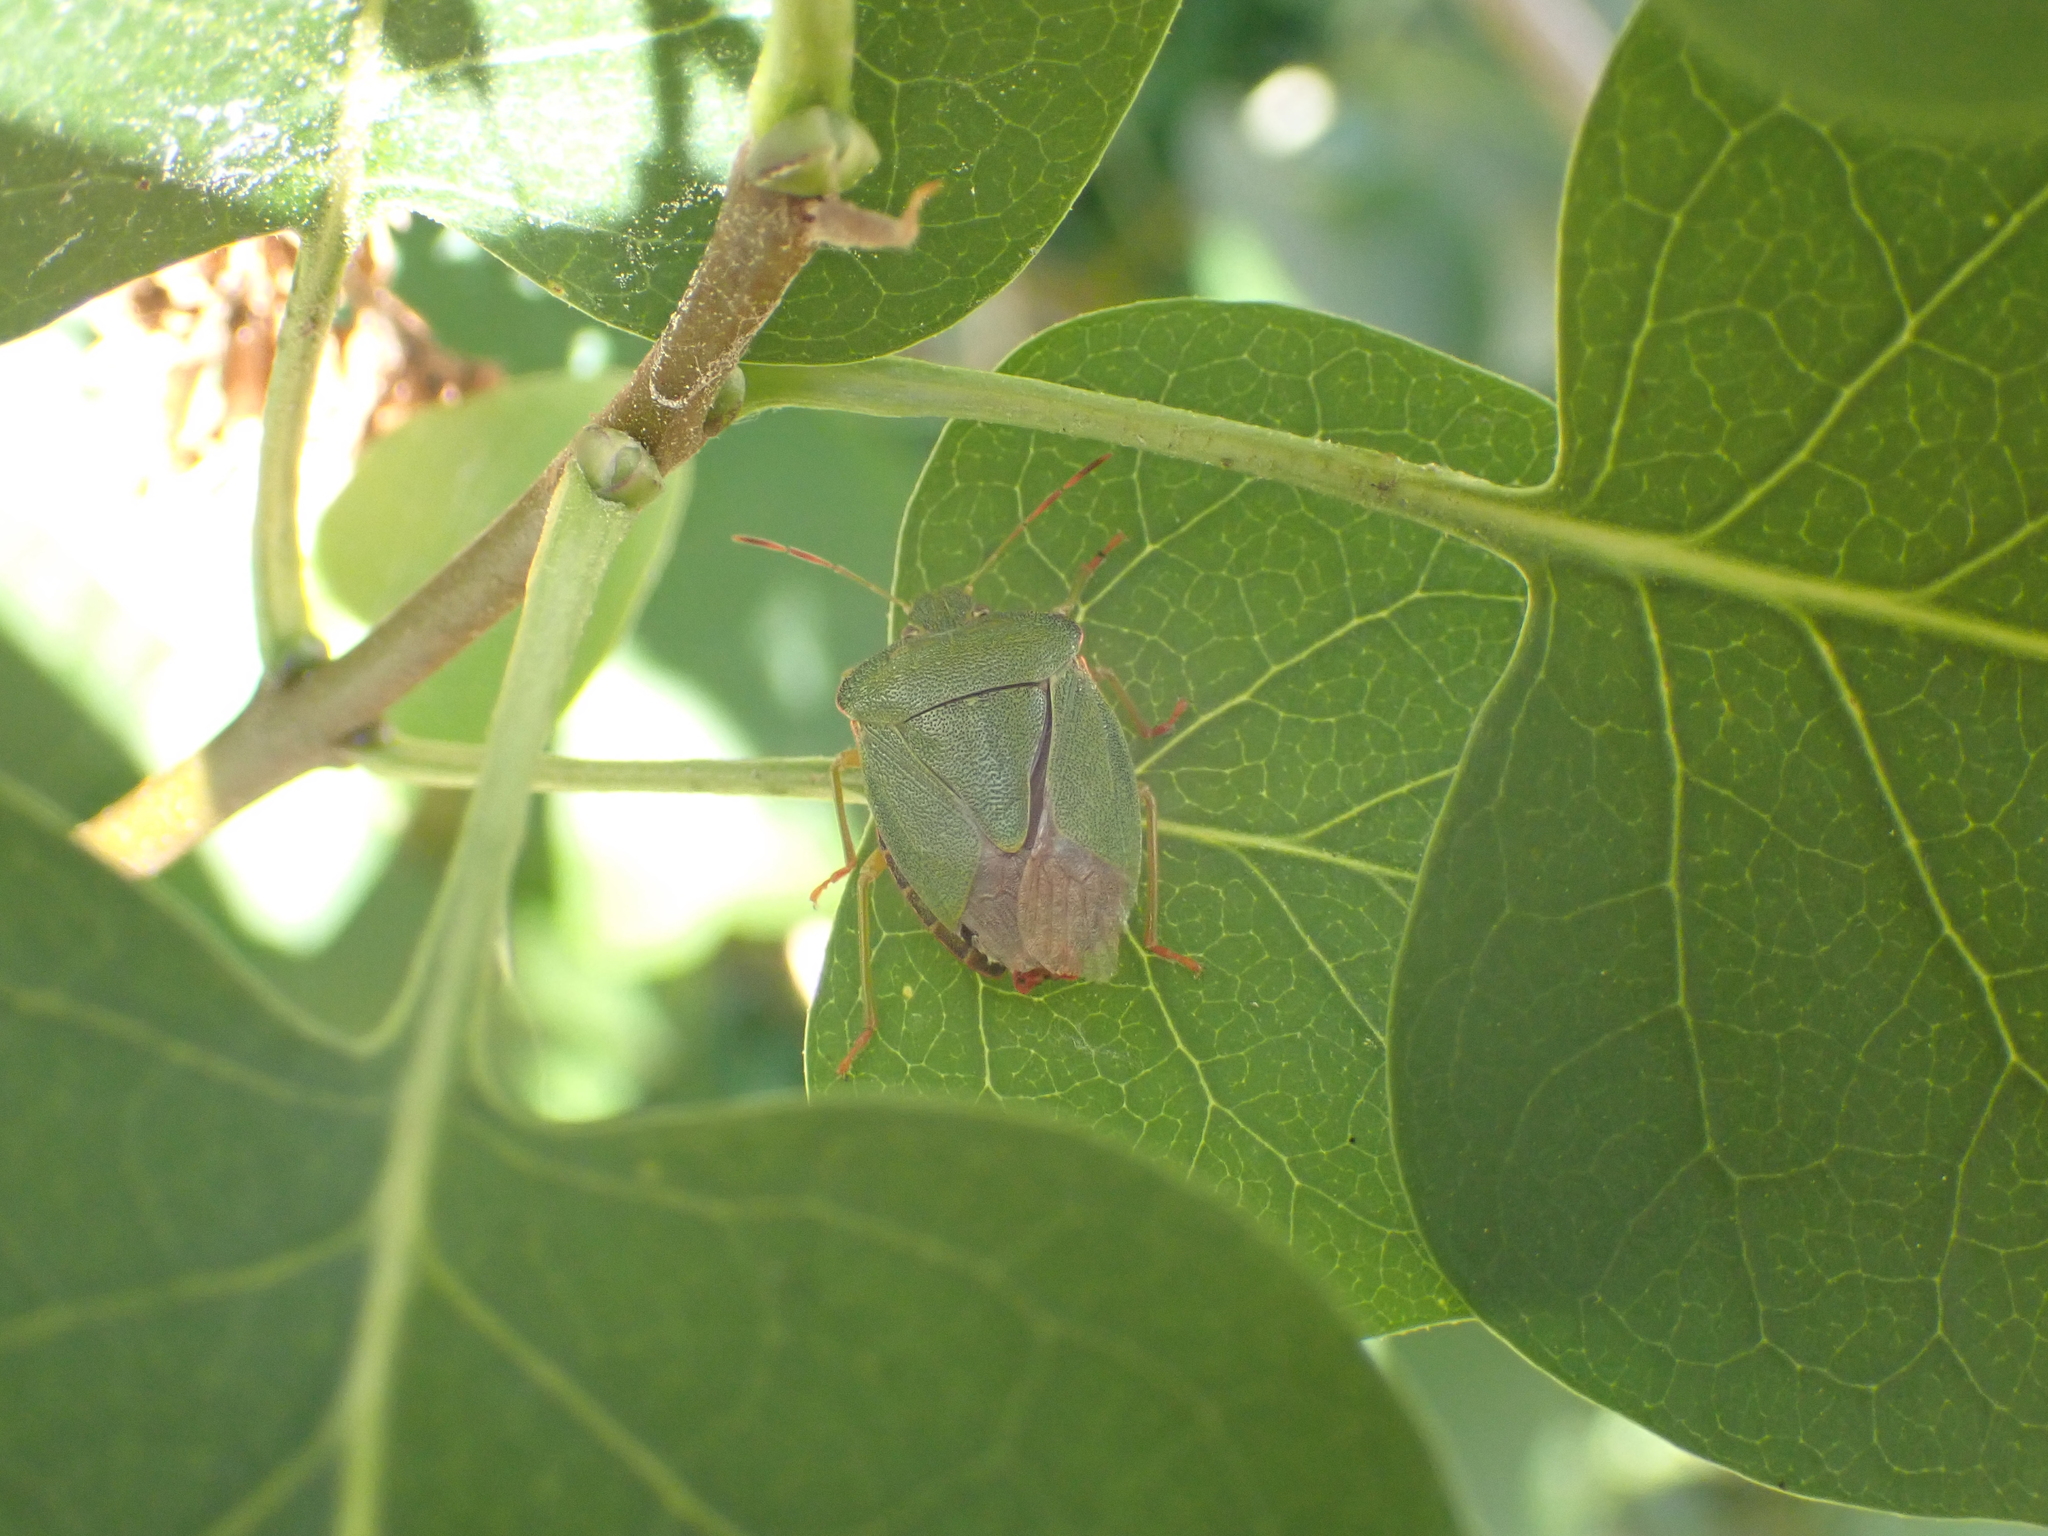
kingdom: Animalia
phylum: Arthropoda
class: Insecta
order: Hemiptera
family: Pentatomidae
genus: Palomena
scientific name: Palomena prasina
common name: Green shieldbug
